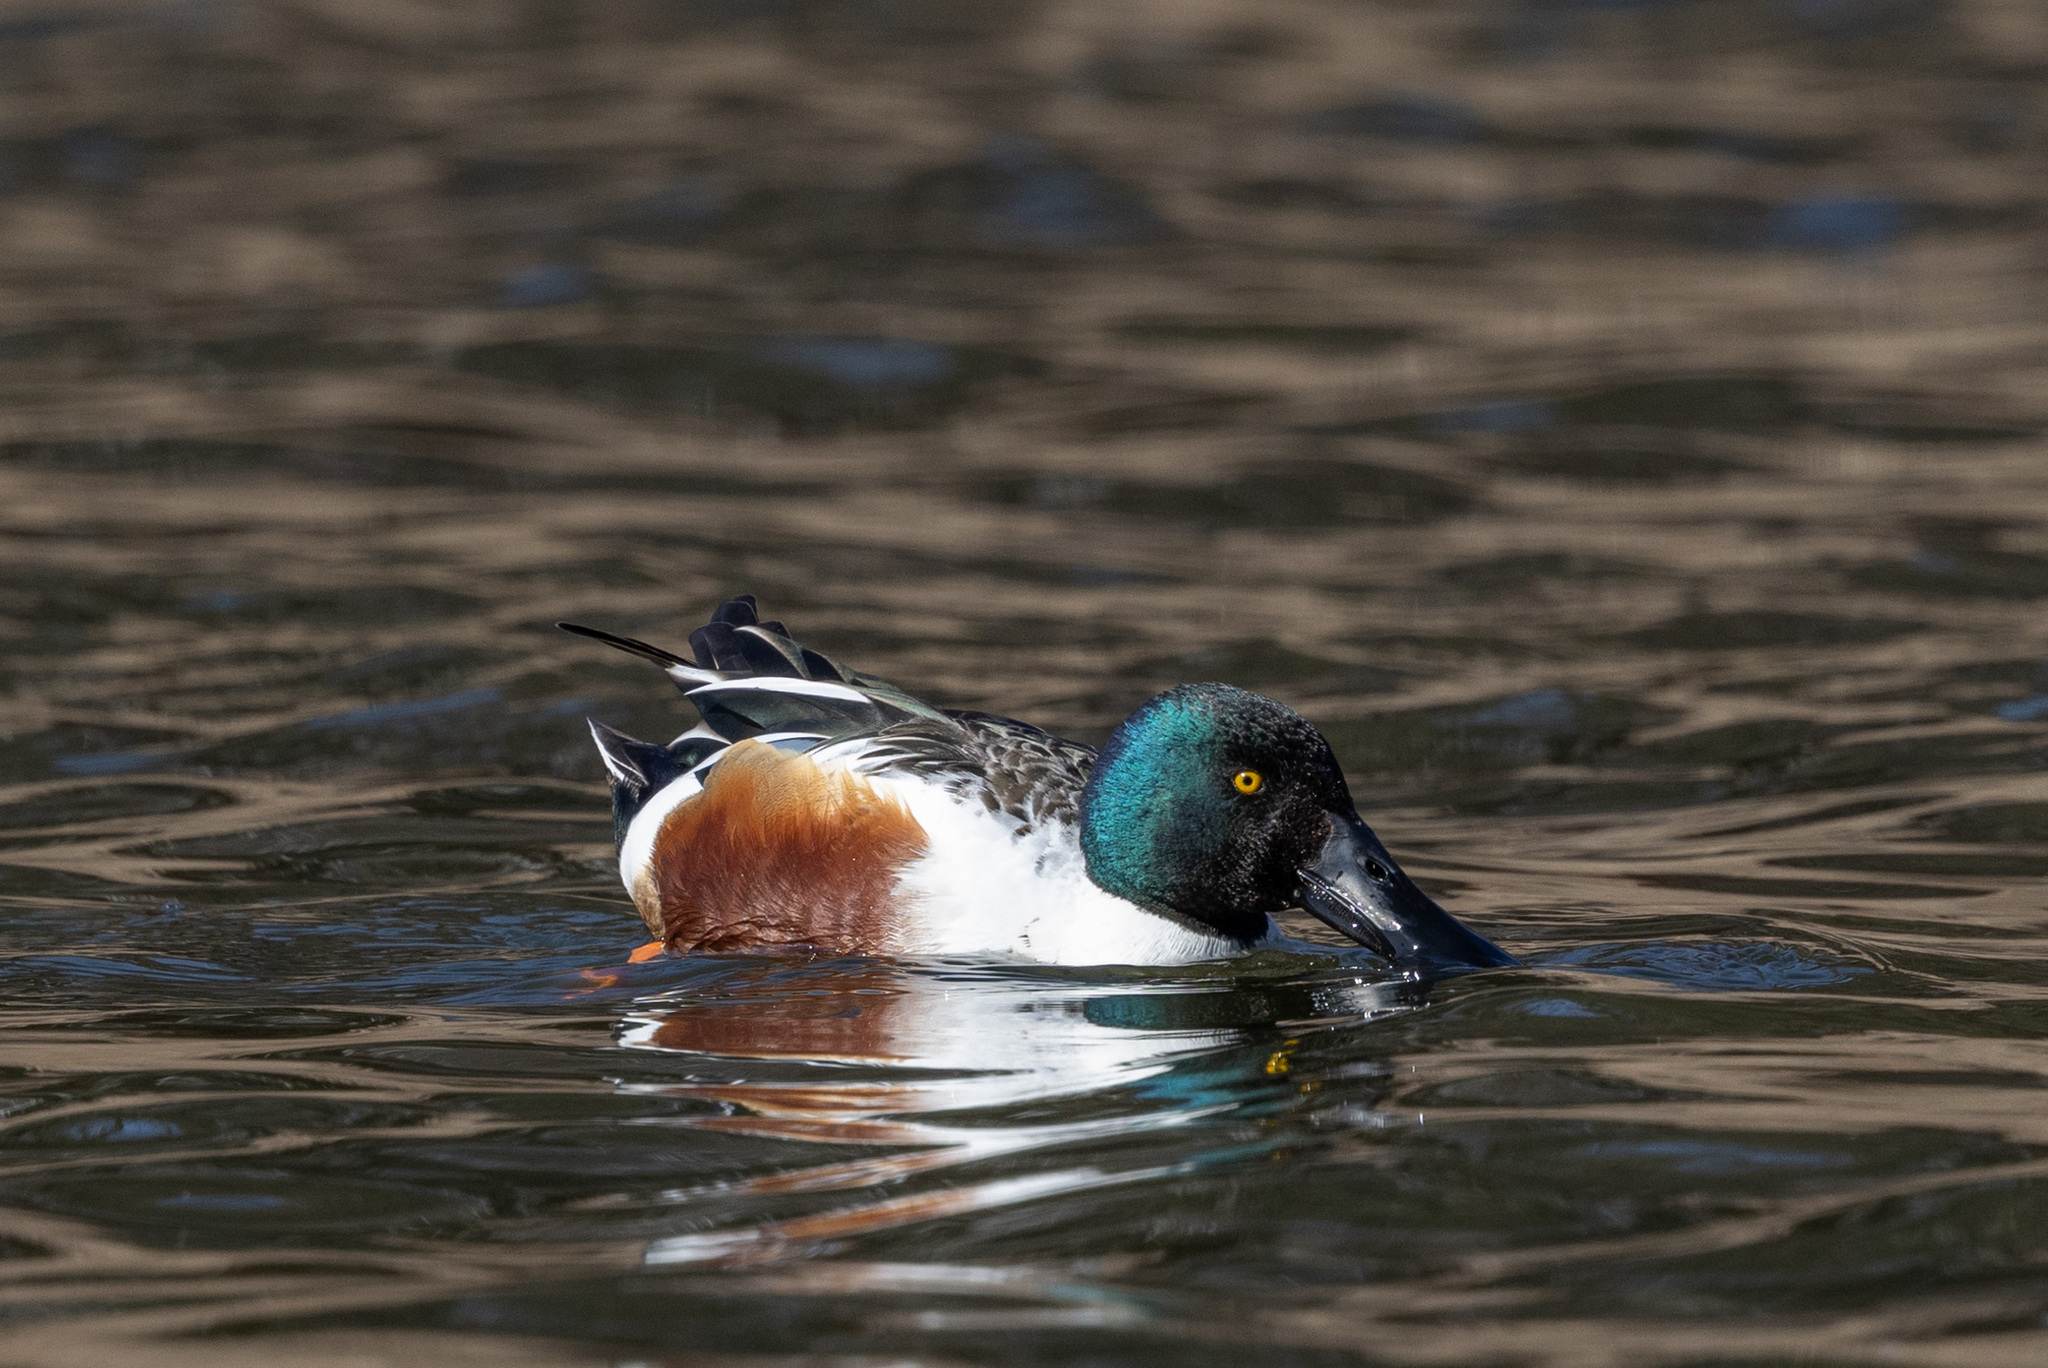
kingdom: Animalia
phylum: Chordata
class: Aves
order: Anseriformes
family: Anatidae
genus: Spatula
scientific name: Spatula clypeata
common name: Northern shoveler
